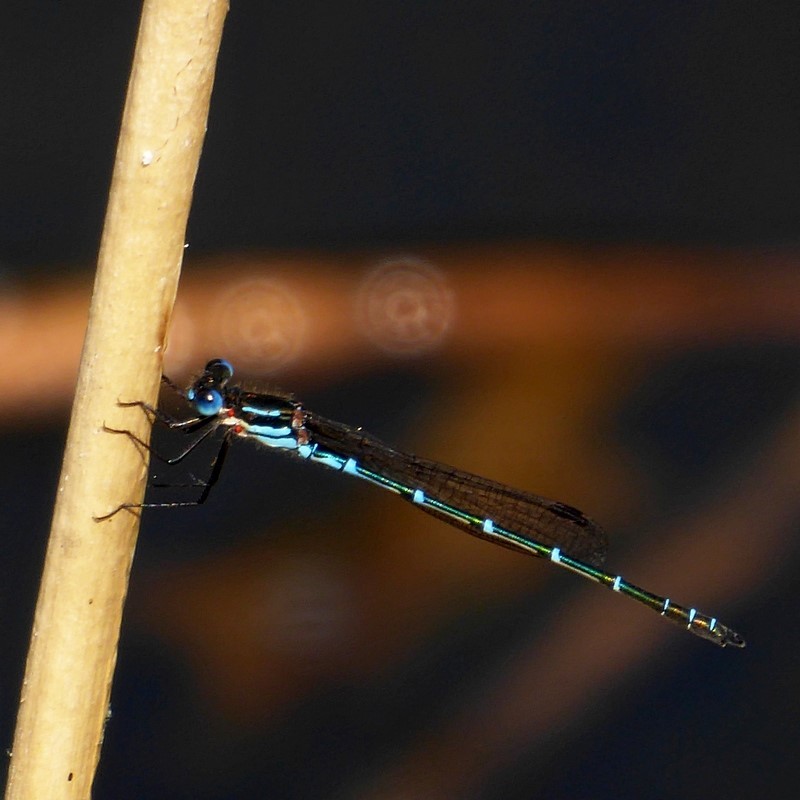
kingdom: Animalia
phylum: Arthropoda
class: Insecta
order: Odonata
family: Lestidae
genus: Austrolestes
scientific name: Austrolestes psyche
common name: Cup ringtail
